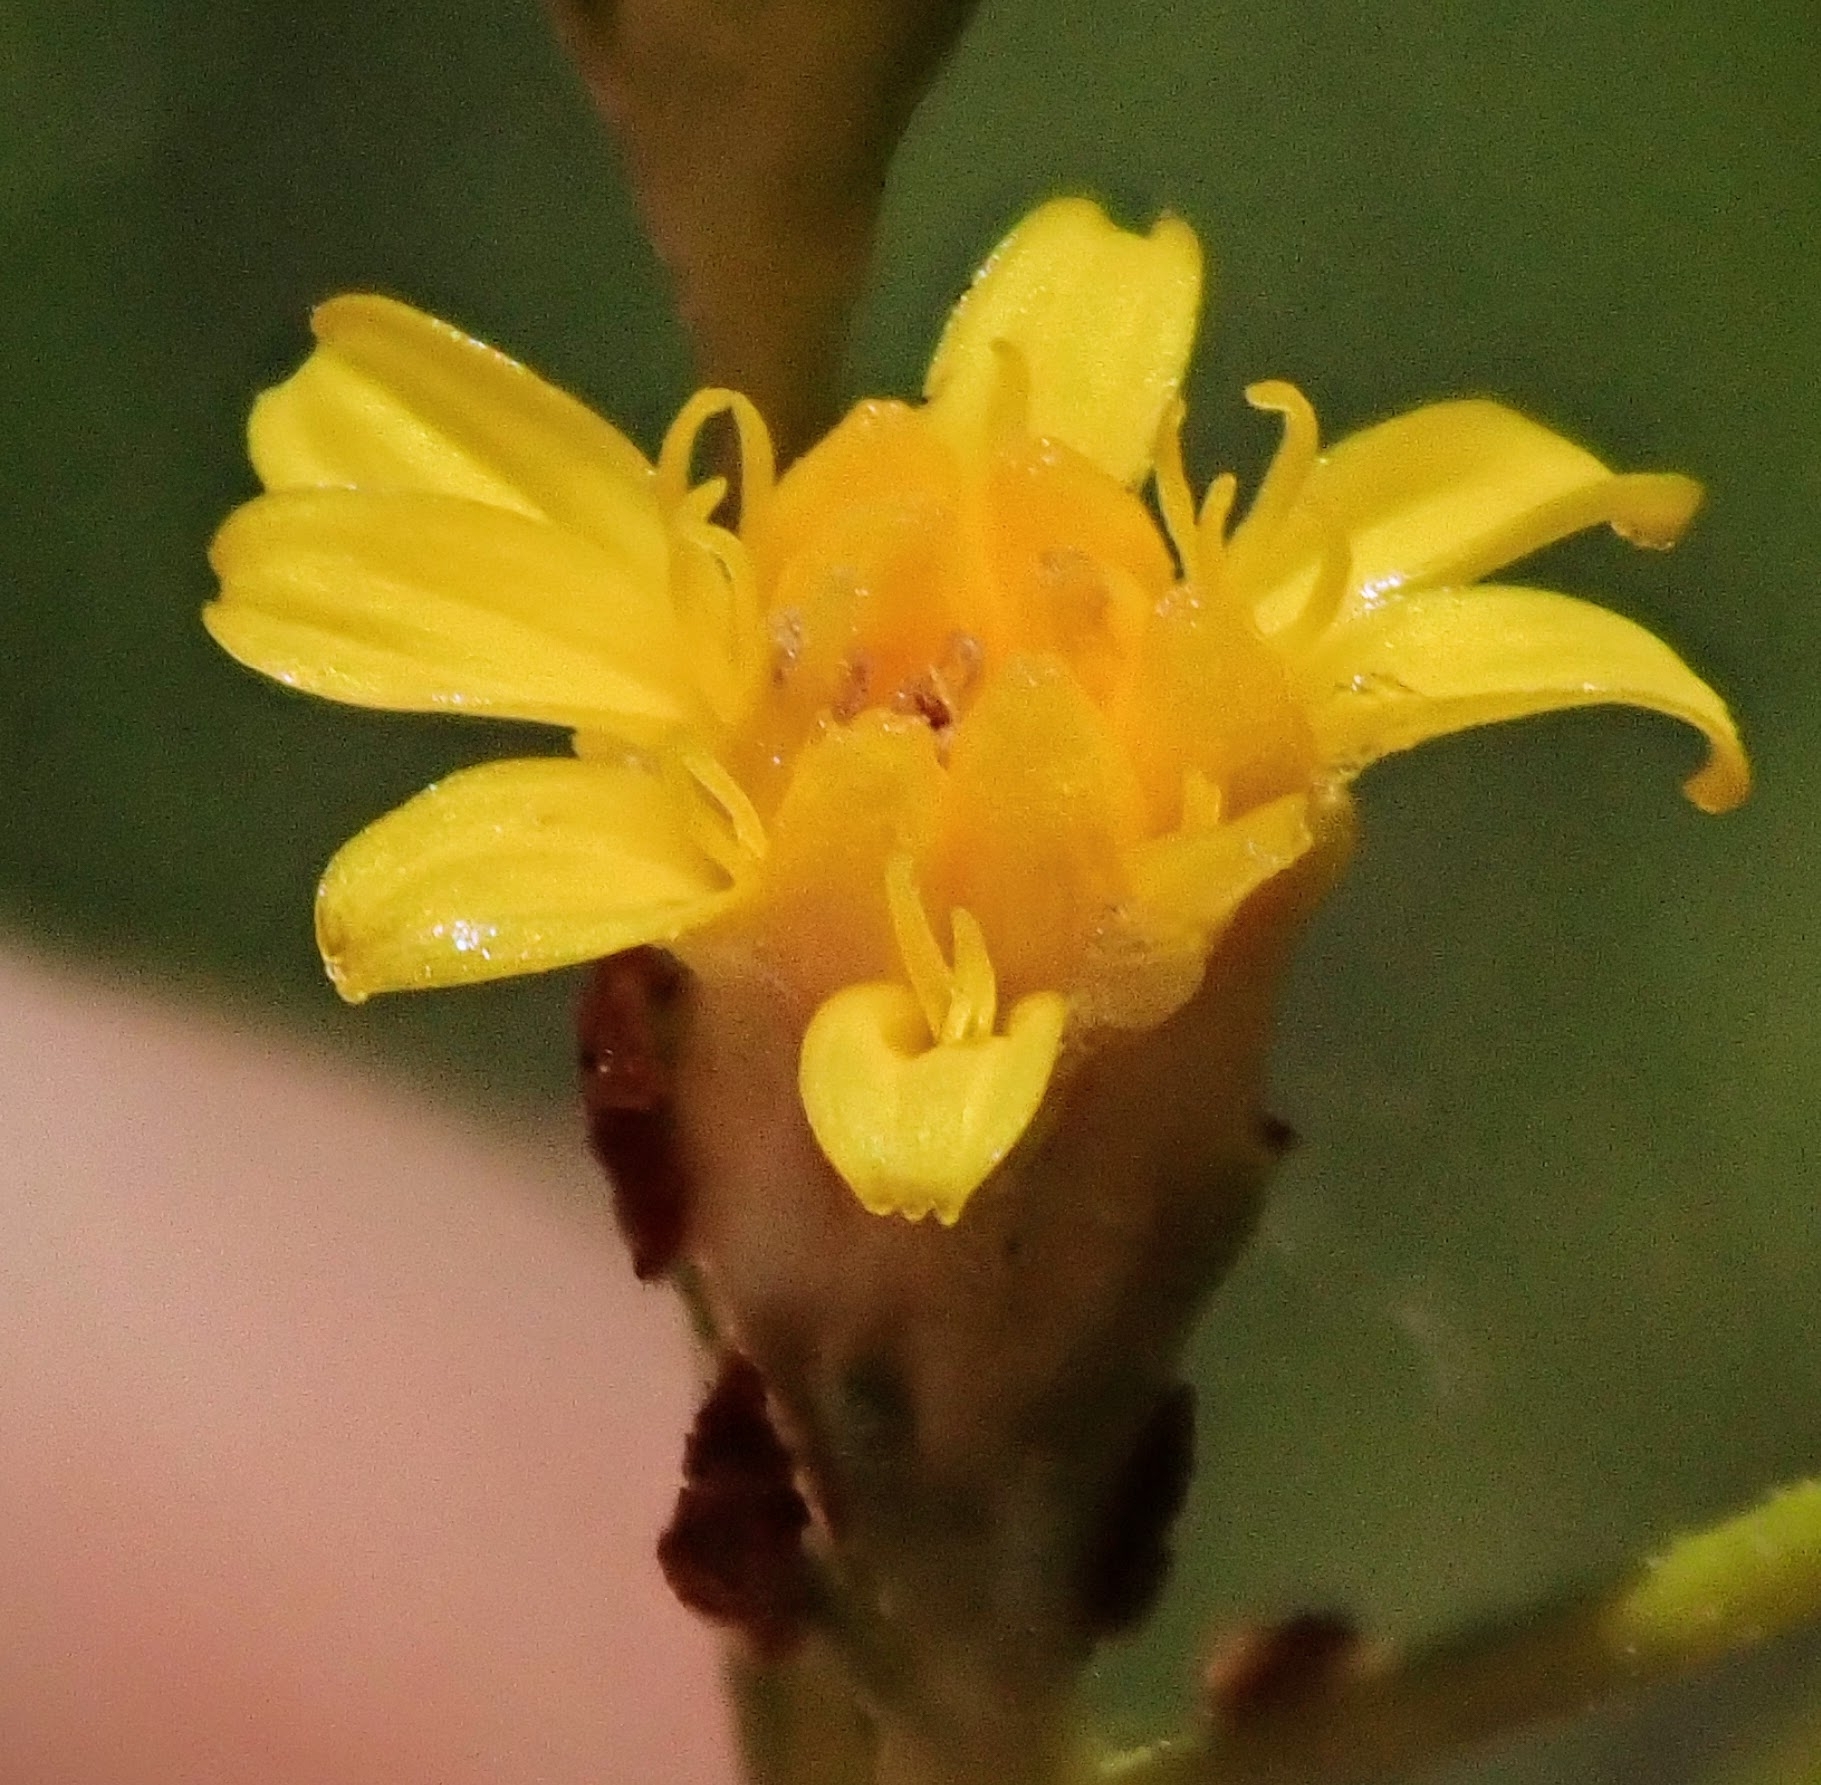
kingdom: Plantae
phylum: Tracheophyta
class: Magnoliopsida
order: Asterales
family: Asteraceae
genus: Gutierrezia
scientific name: Gutierrezia californica
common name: California matchweed
